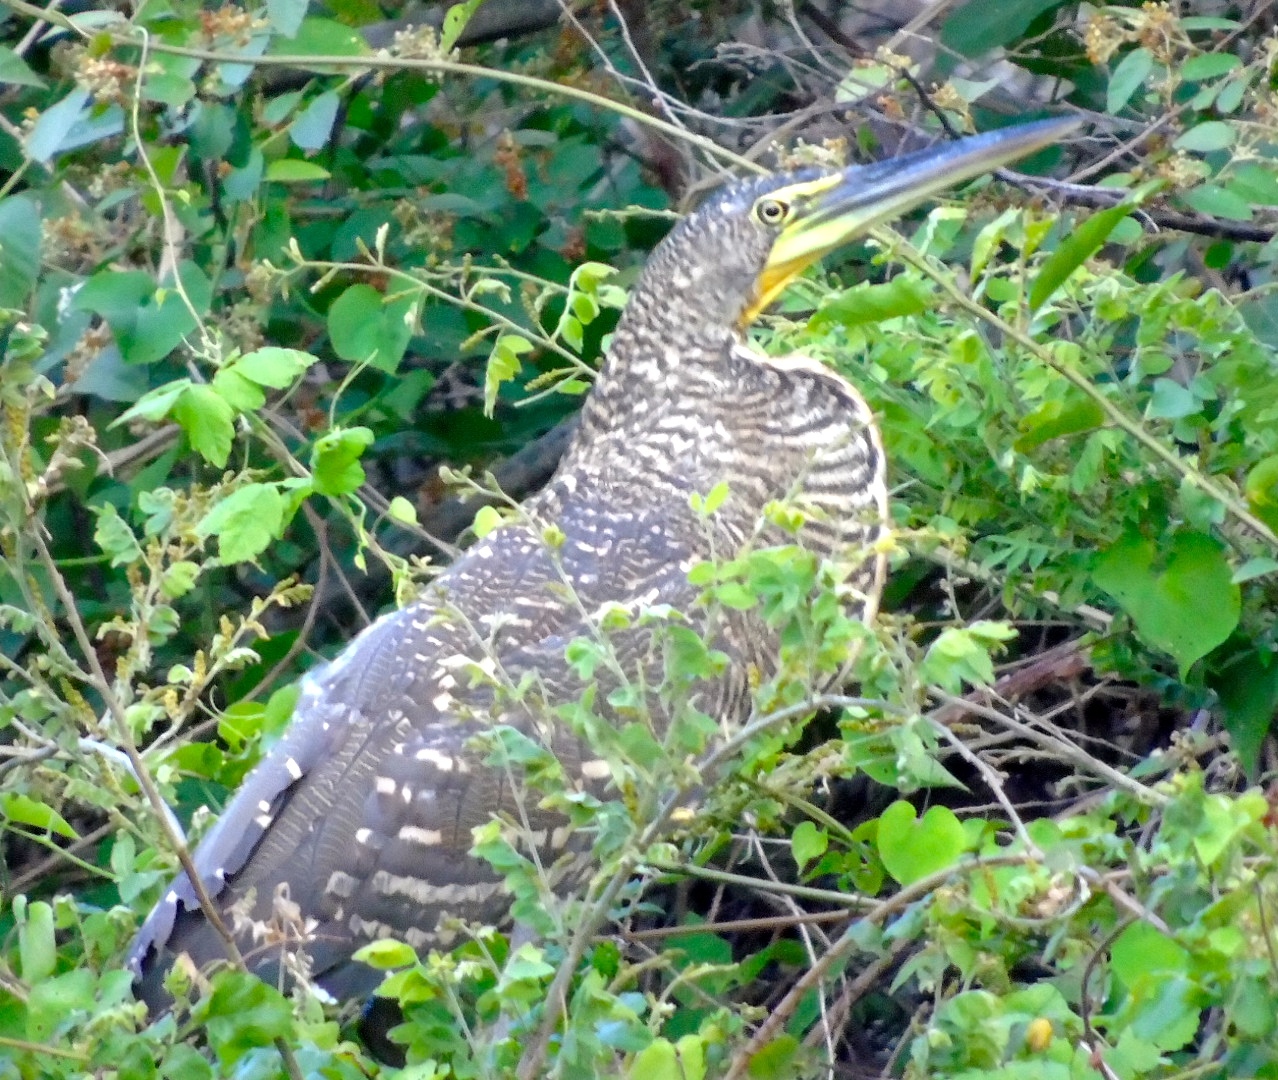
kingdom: Animalia
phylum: Chordata
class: Aves
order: Pelecaniformes
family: Ardeidae
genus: Tigrisoma
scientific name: Tigrisoma mexicanum
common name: Bare-throated tiger-heron
